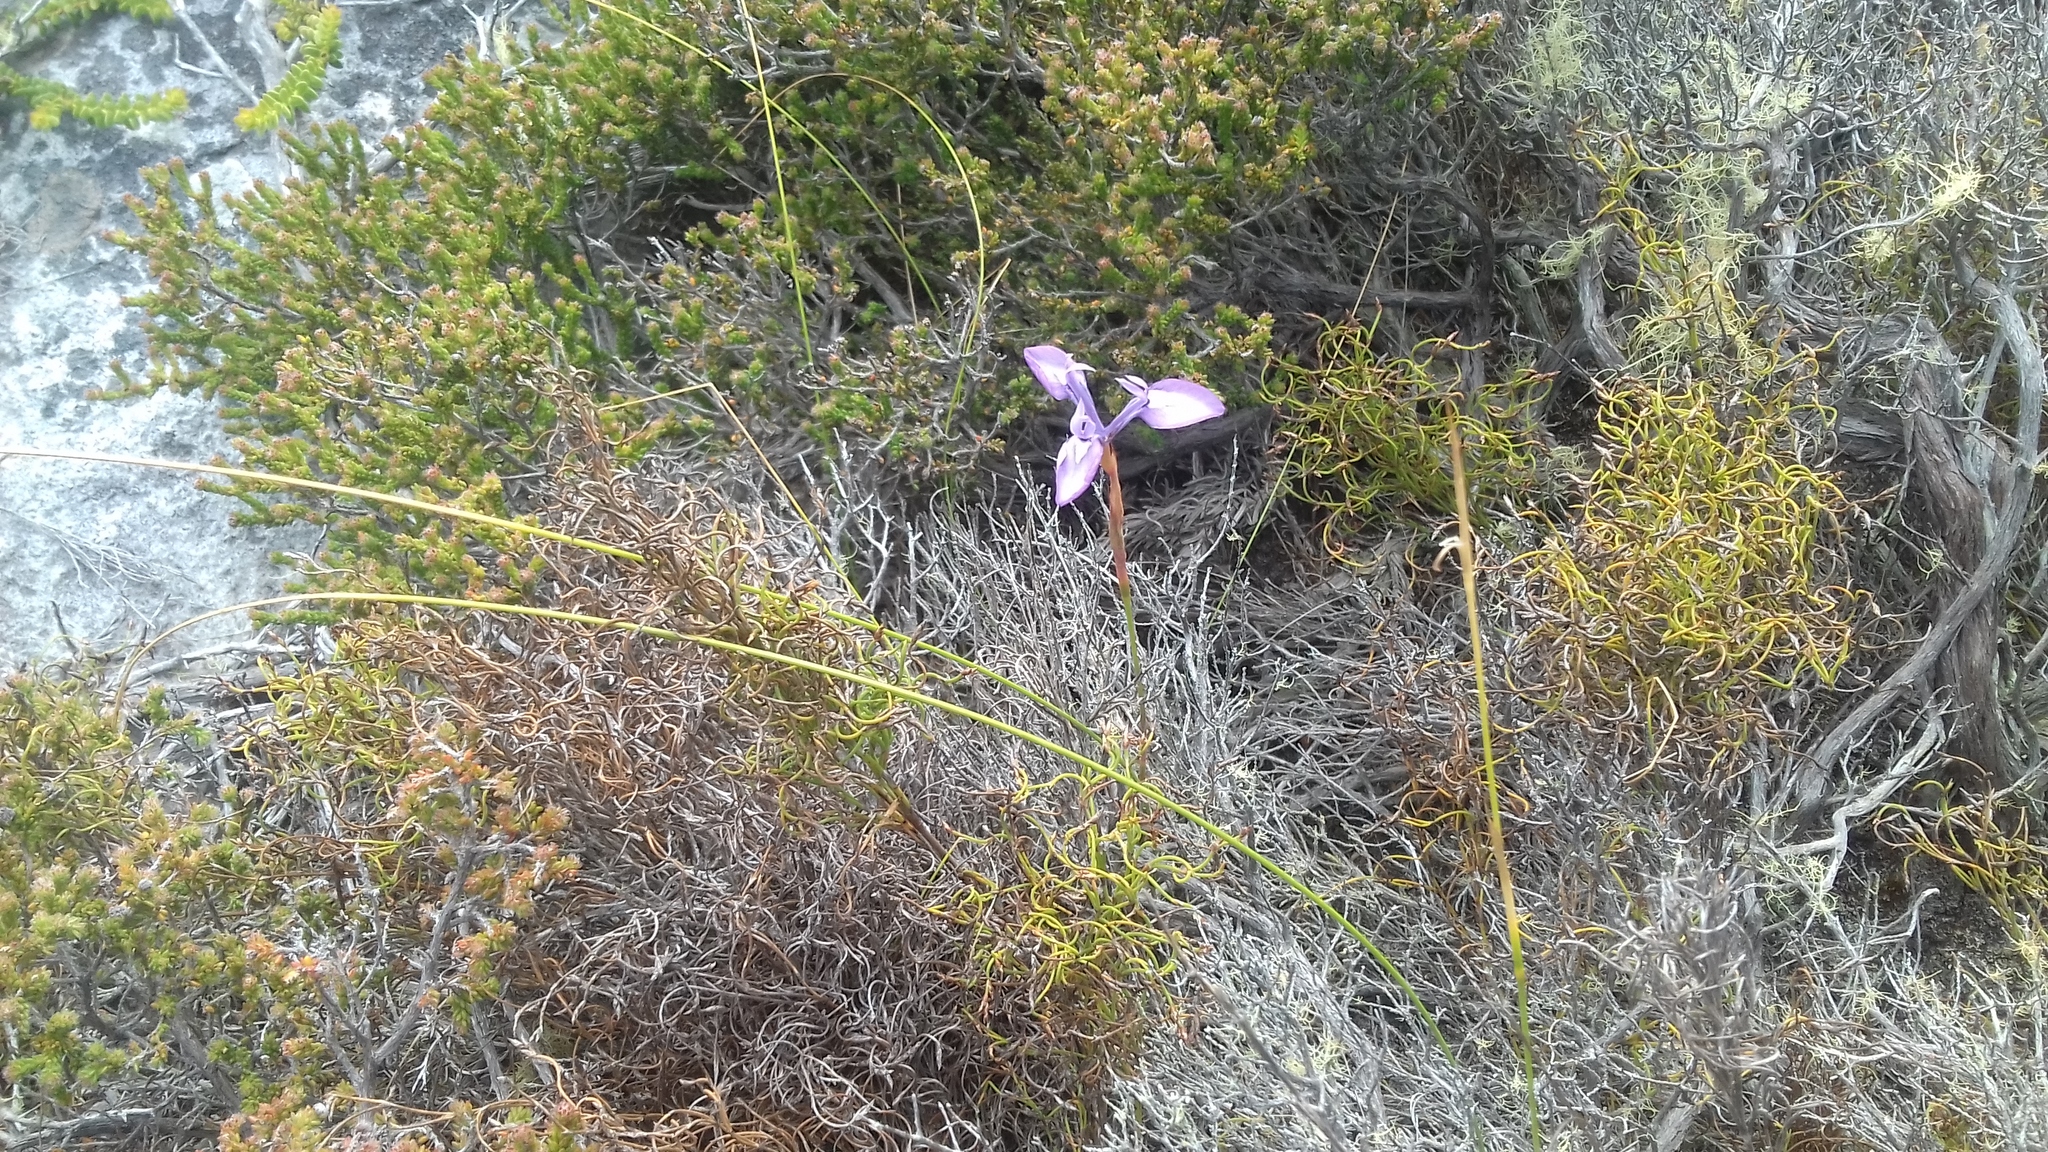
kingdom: Plantae
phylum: Tracheophyta
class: Liliopsida
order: Asparagales
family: Iridaceae
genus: Moraea
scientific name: Moraea tripetala
